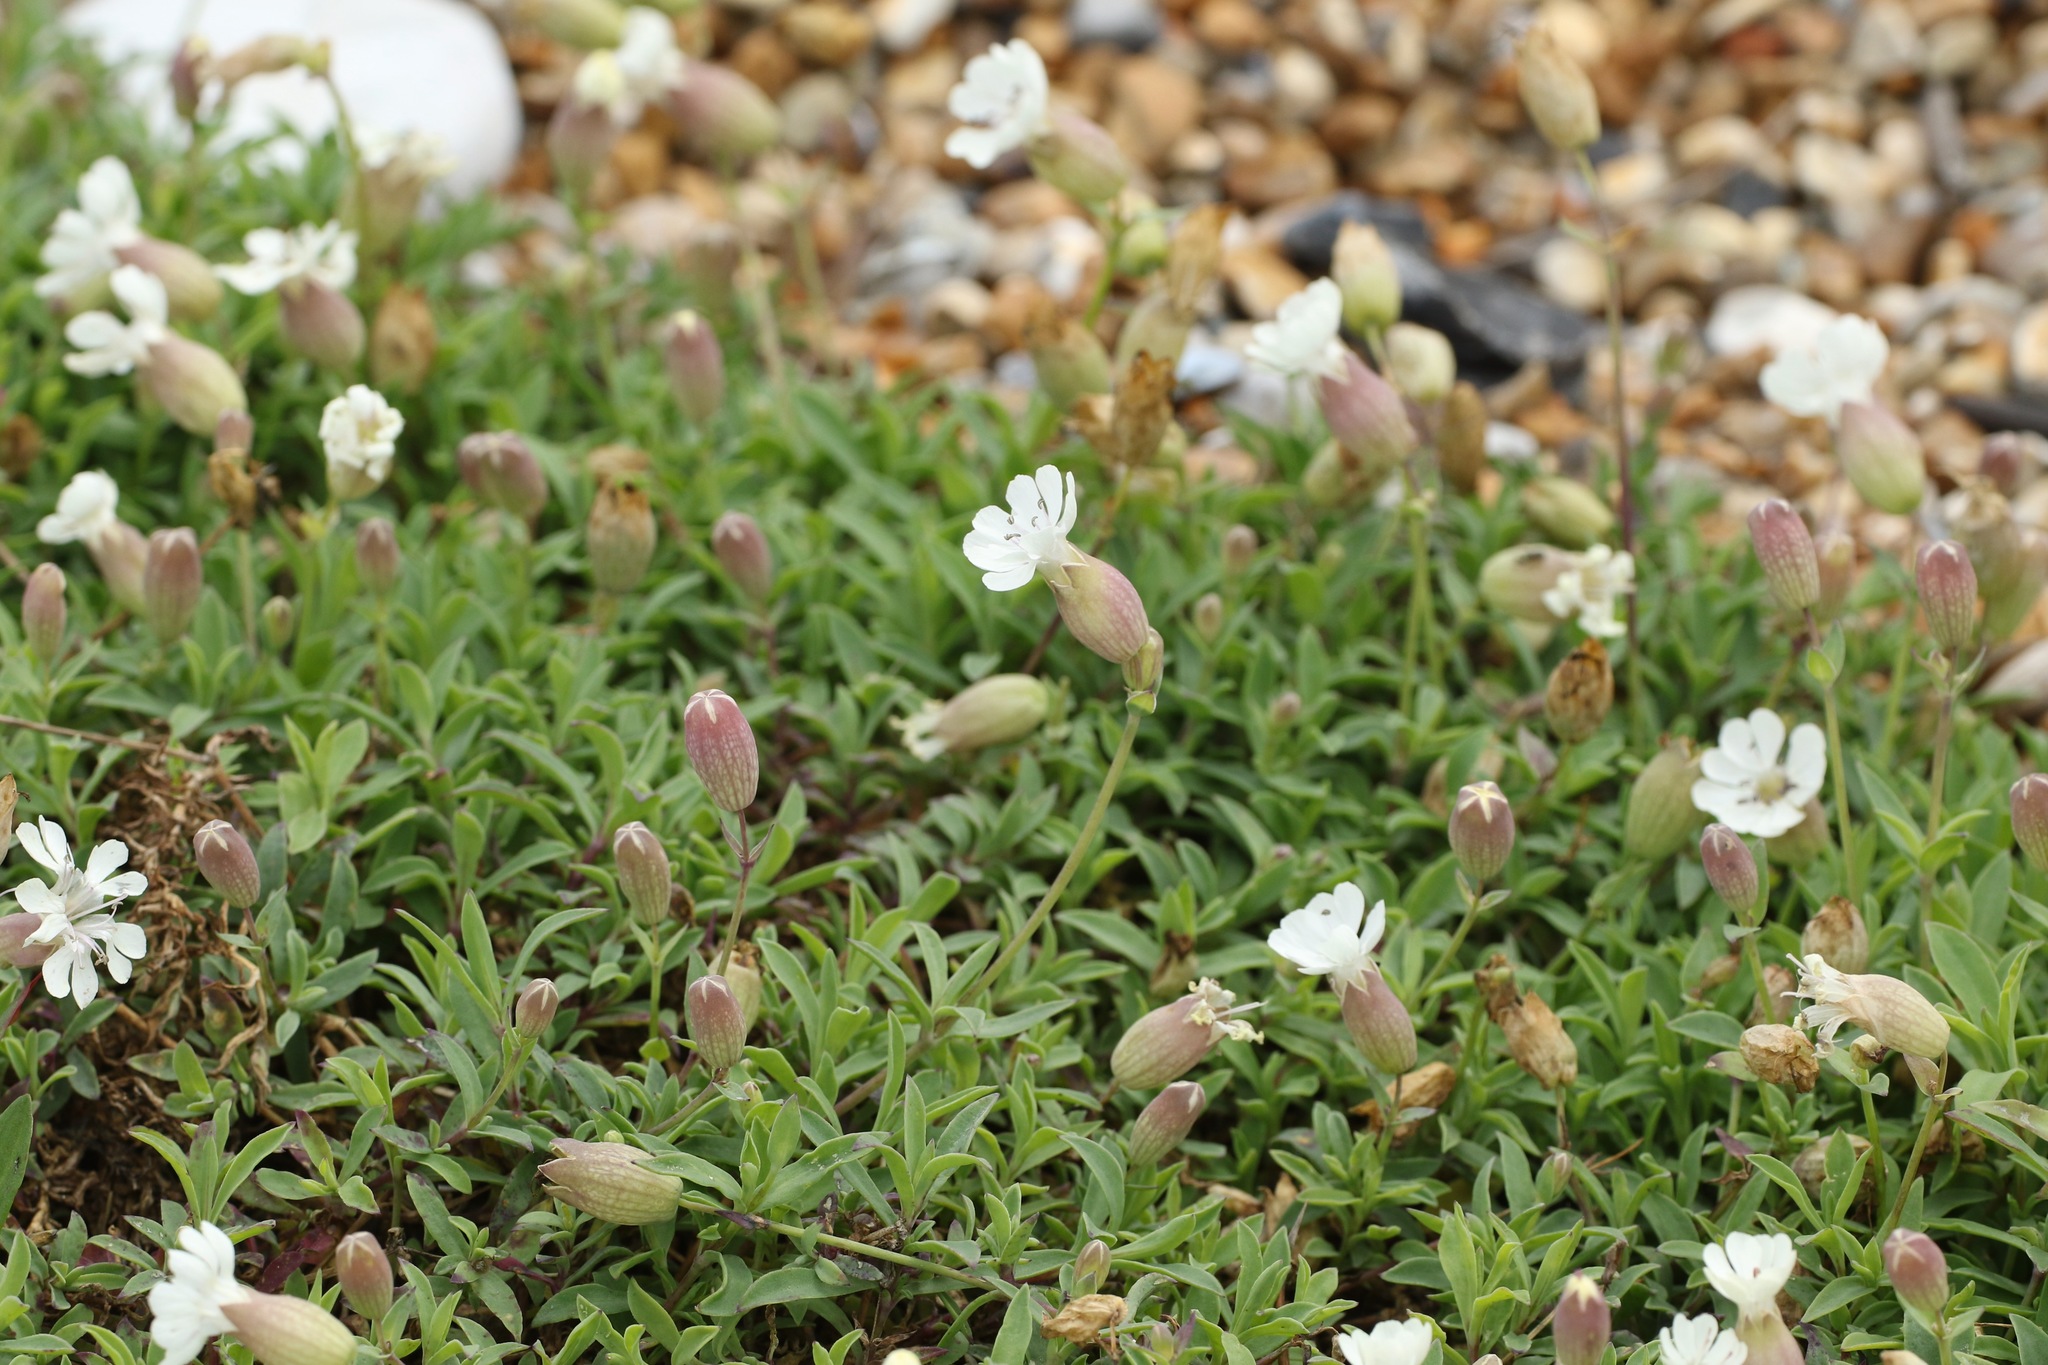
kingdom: Plantae
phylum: Tracheophyta
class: Magnoliopsida
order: Caryophyllales
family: Caryophyllaceae
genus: Silene
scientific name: Silene uniflora
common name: Sea campion
